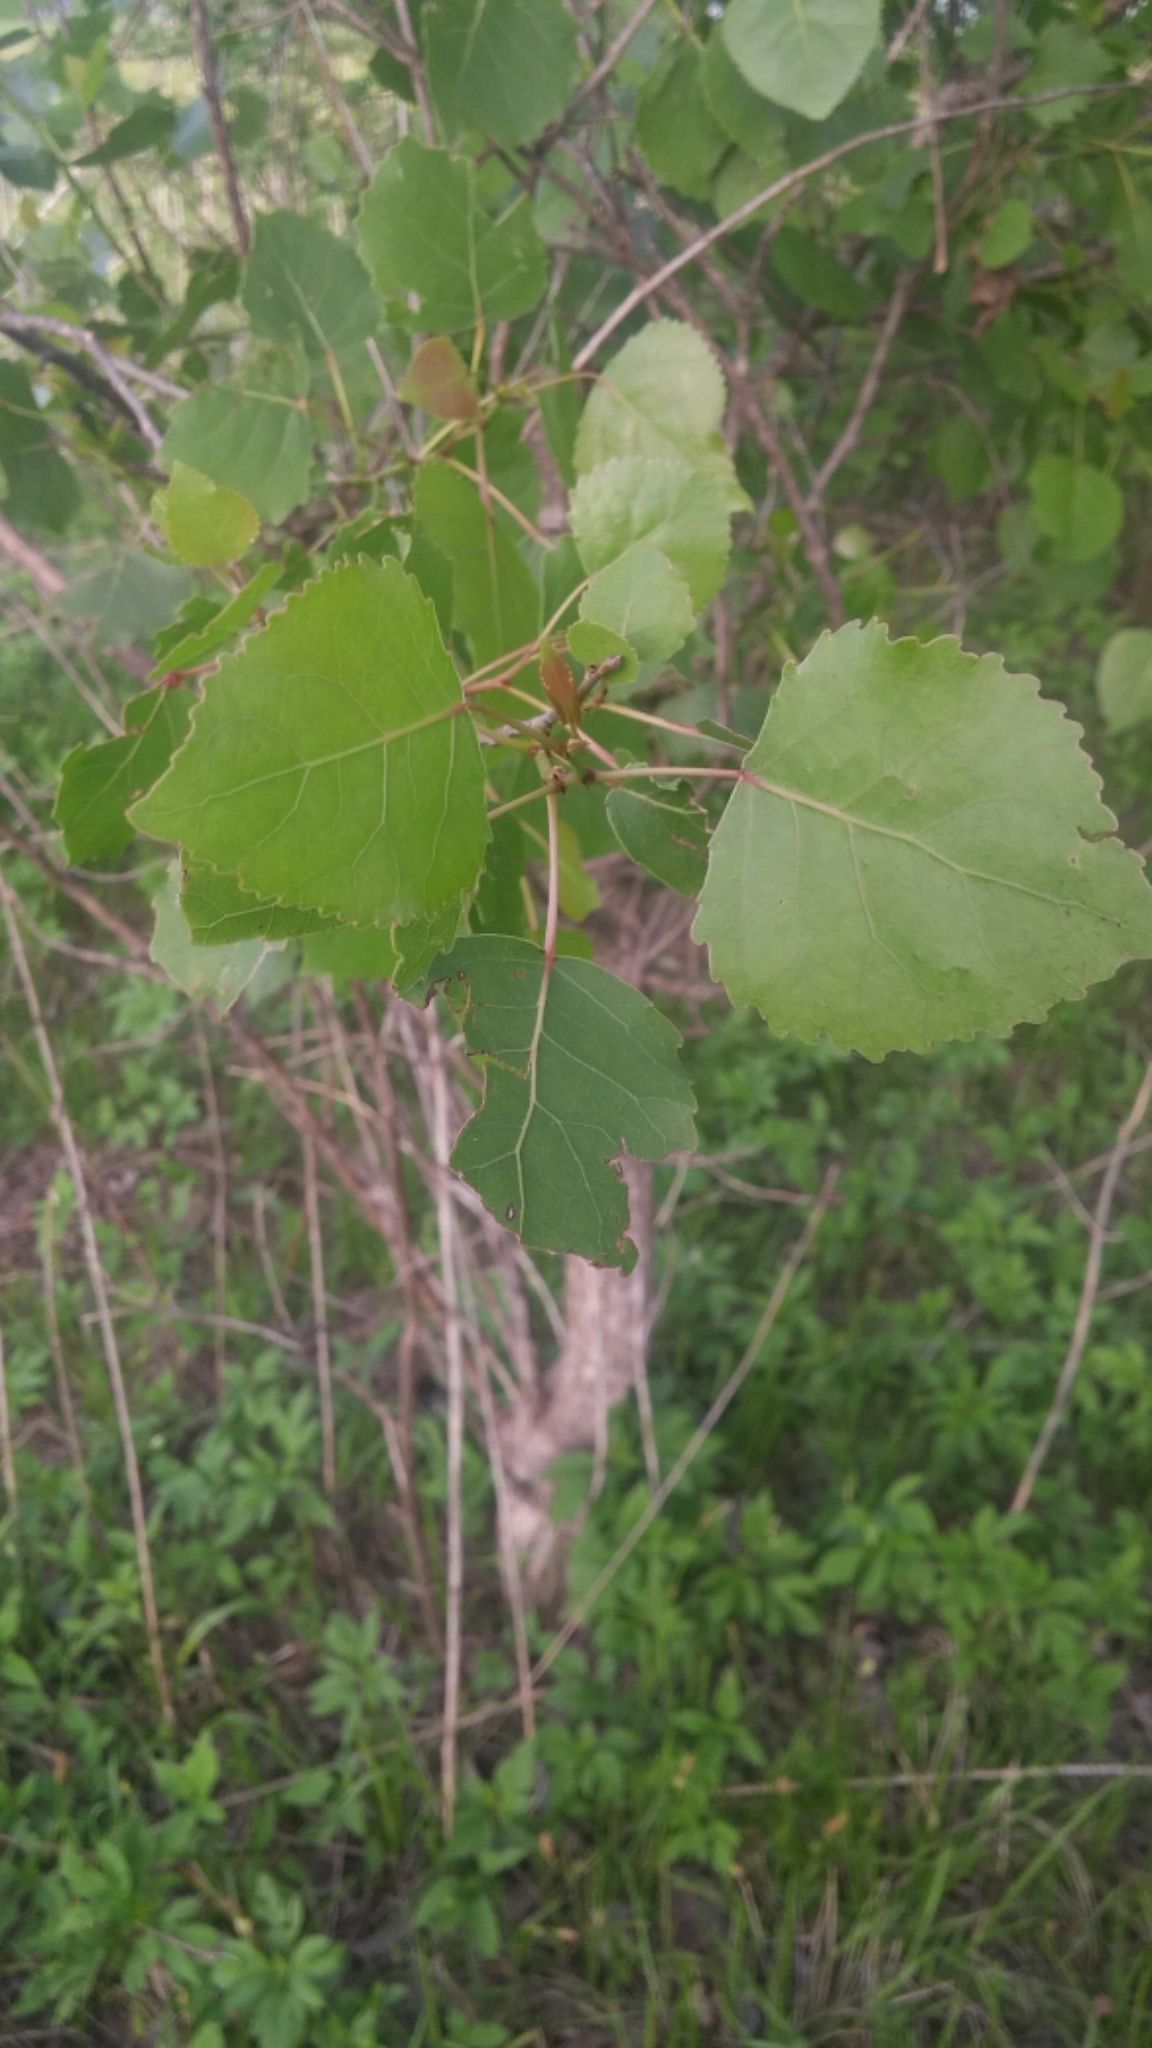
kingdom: Plantae
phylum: Tracheophyta
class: Magnoliopsida
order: Malpighiales
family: Salicaceae
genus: Populus
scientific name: Populus deltoides
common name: Eastern cottonwood
